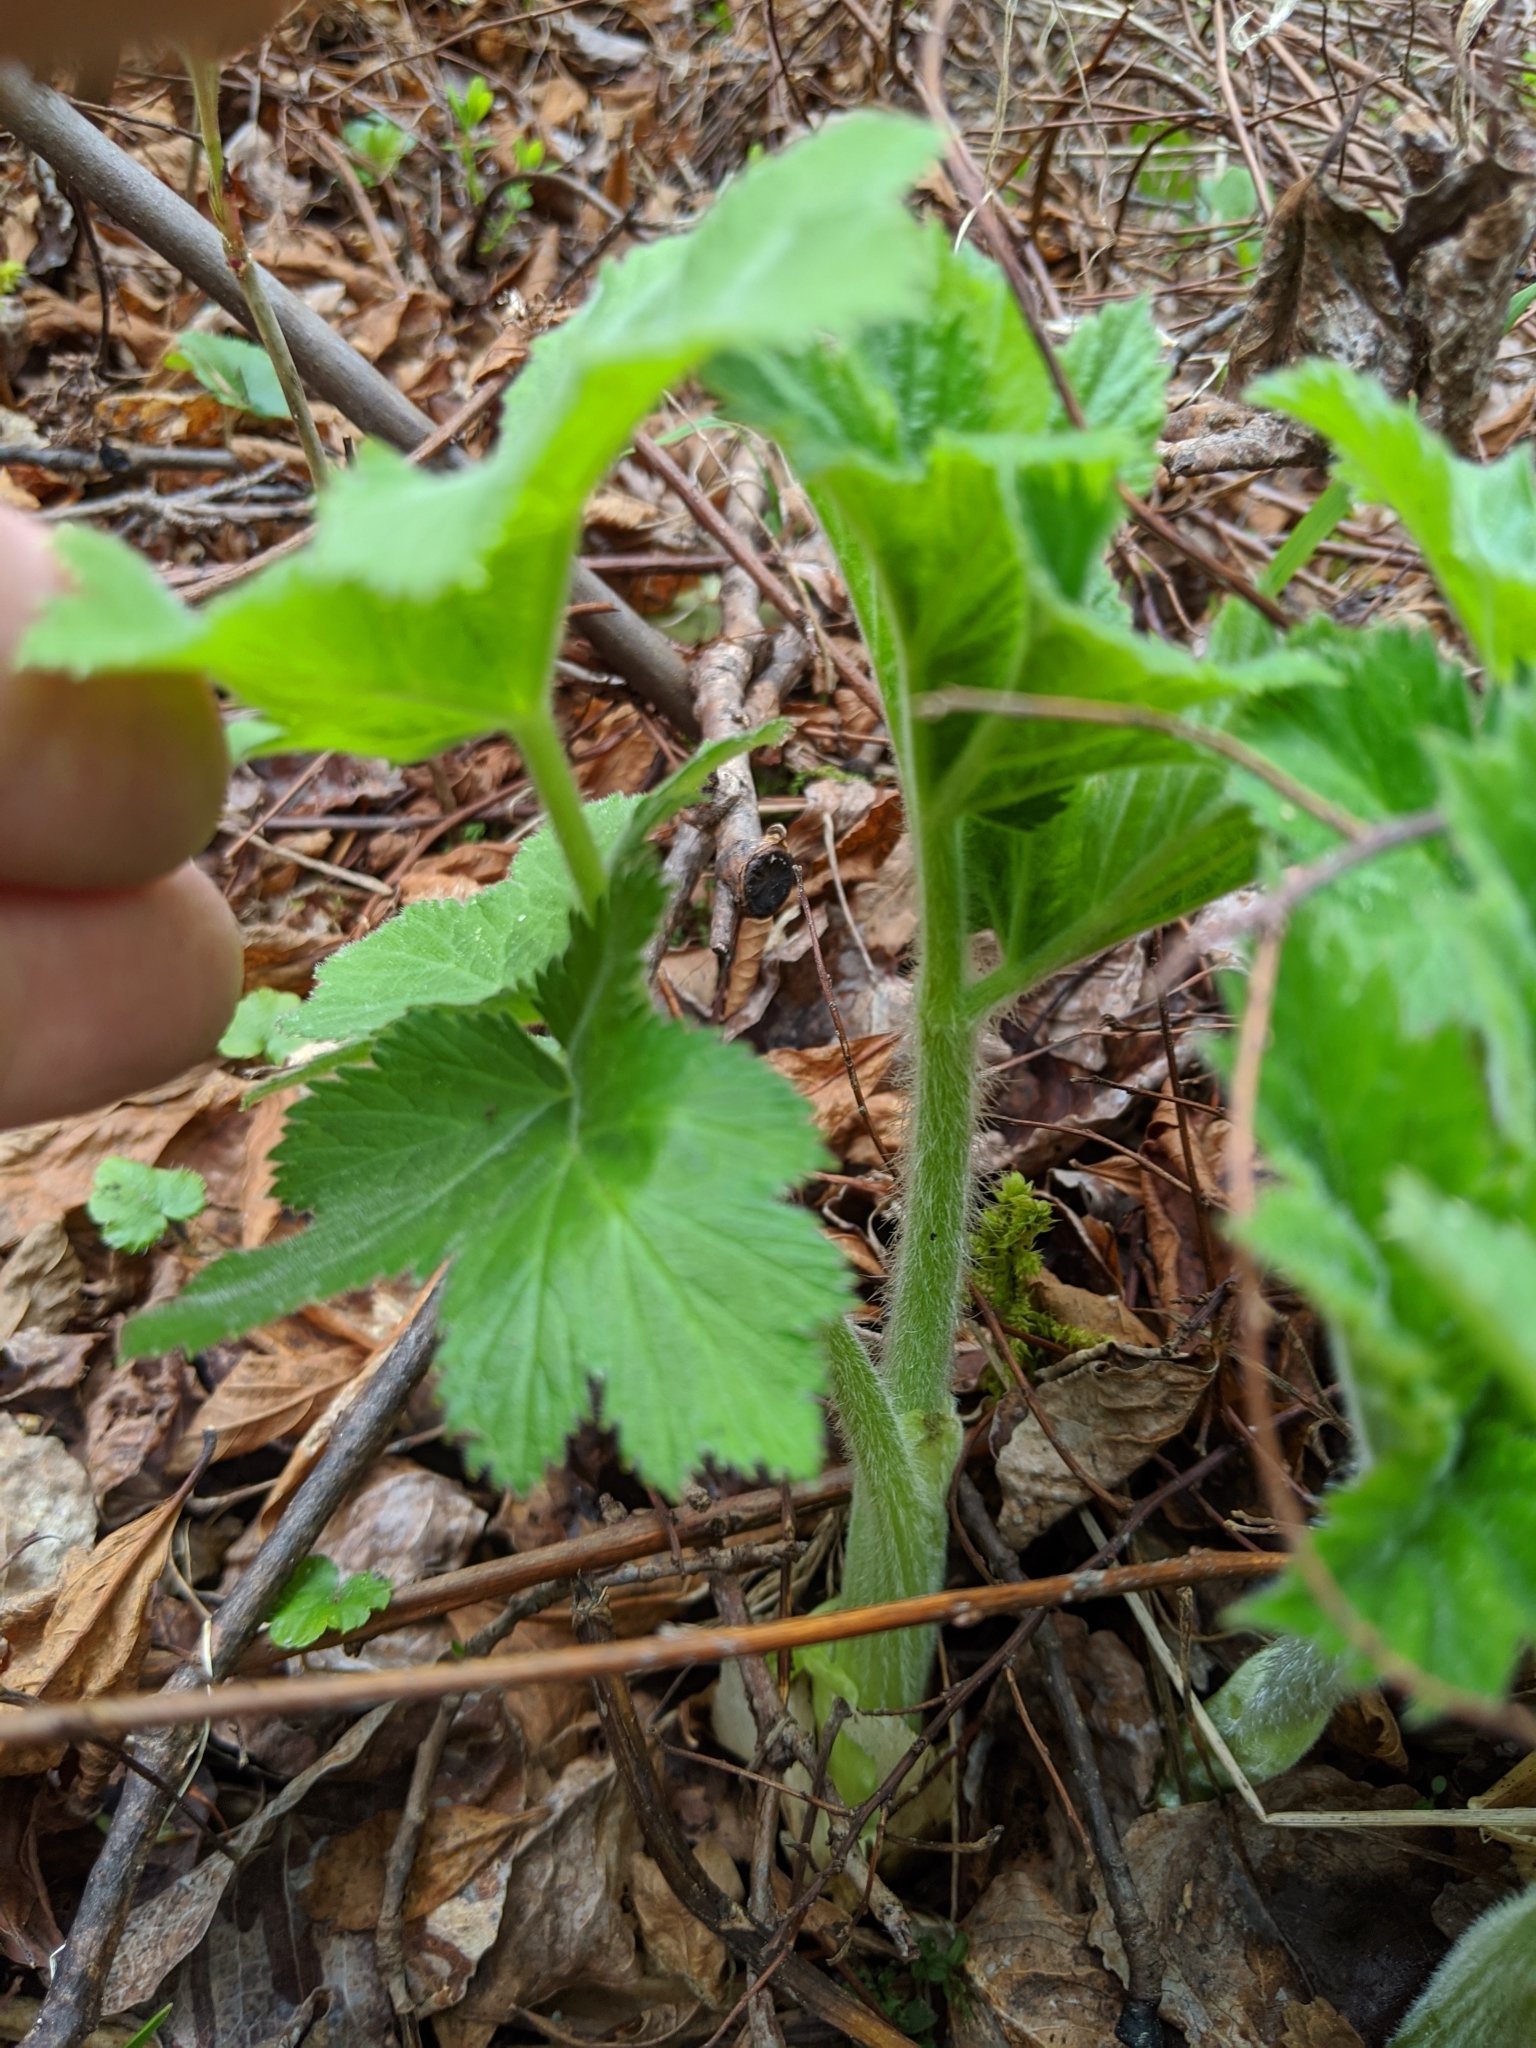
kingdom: Plantae
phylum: Tracheophyta
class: Magnoliopsida
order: Apiales
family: Apiaceae
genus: Heracleum
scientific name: Heracleum maximum
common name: American cow parsnip
